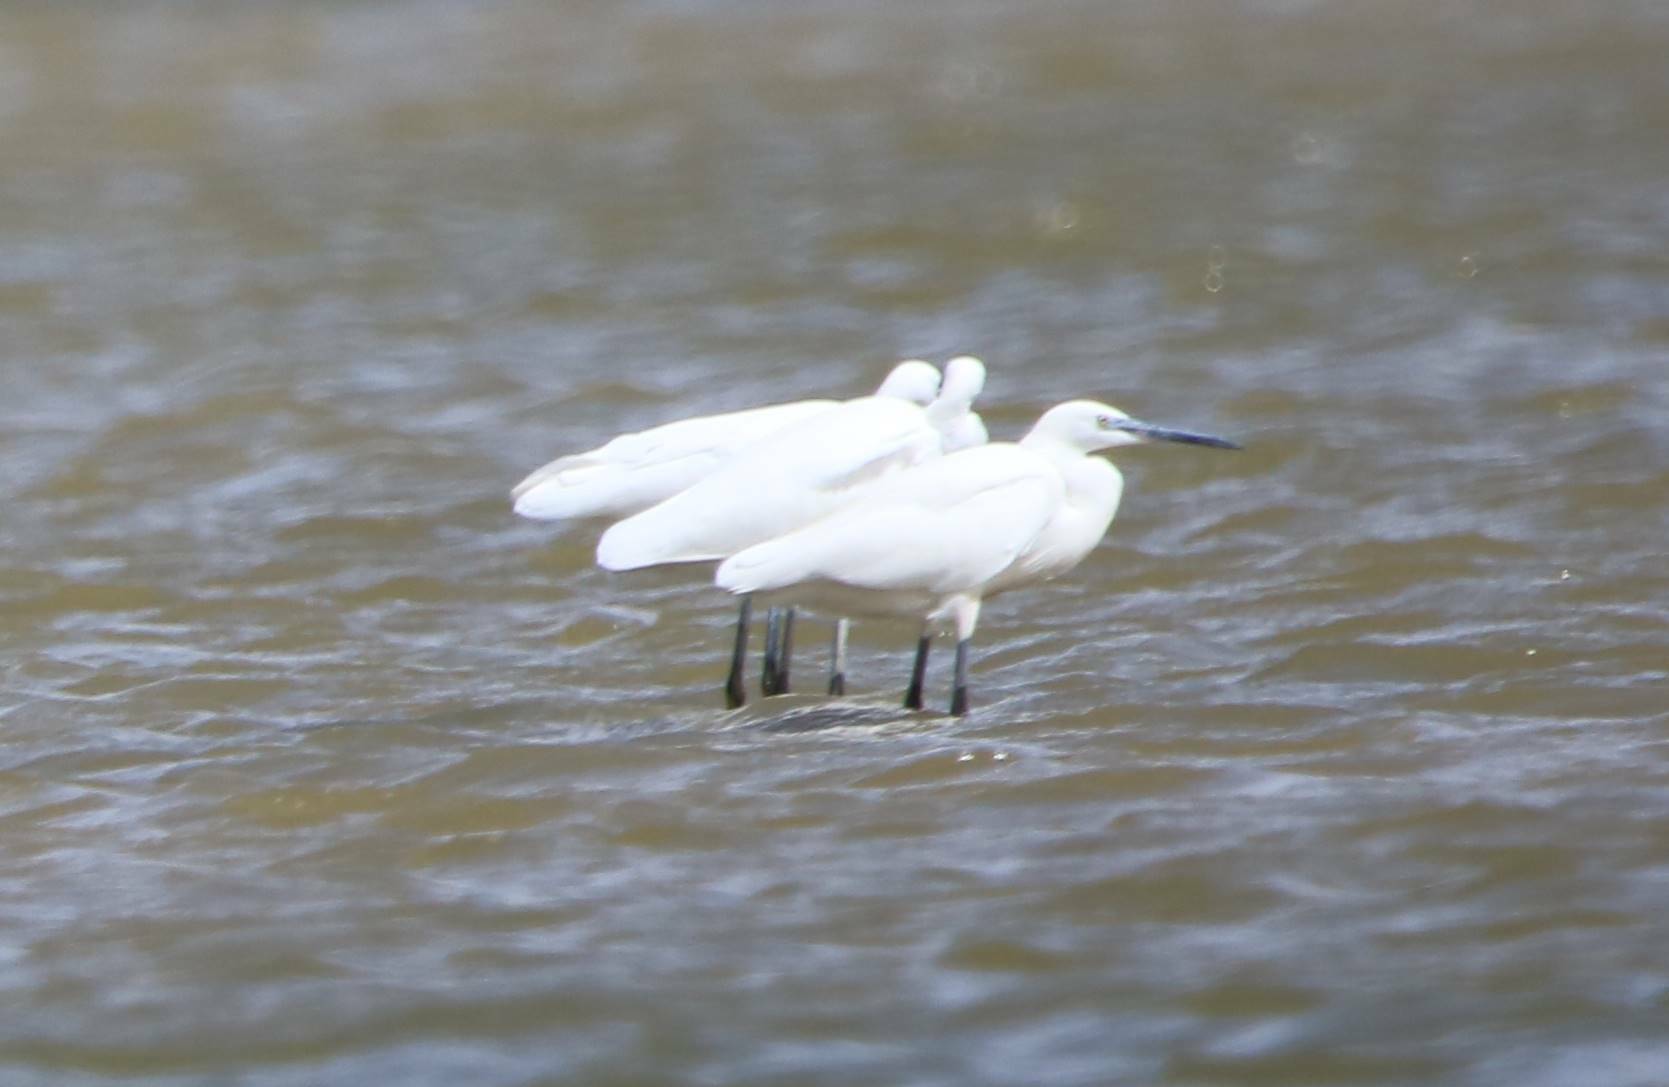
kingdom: Animalia
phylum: Chordata
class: Aves
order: Pelecaniformes
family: Ardeidae
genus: Egretta
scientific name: Egretta garzetta
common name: Little egret
